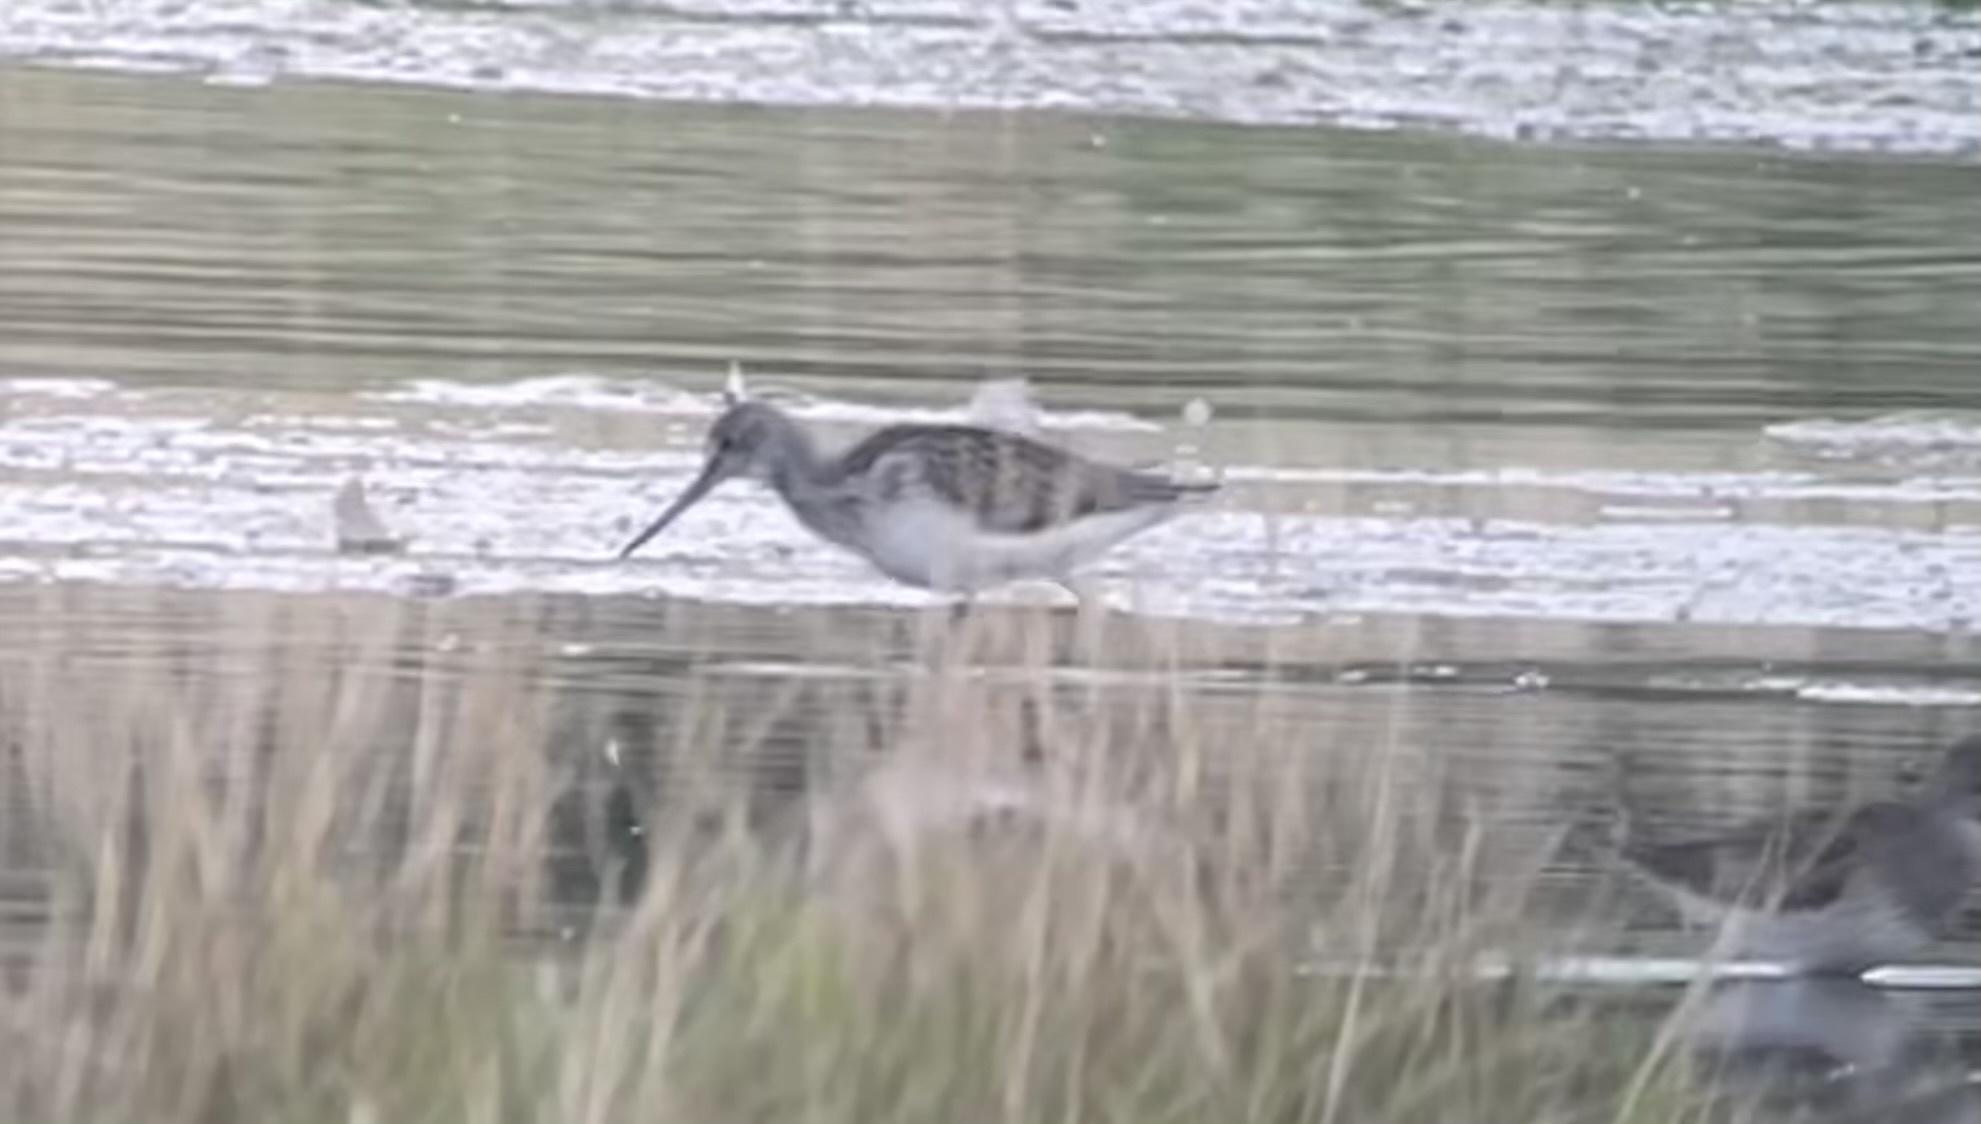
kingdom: Animalia
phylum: Chordata
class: Aves
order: Charadriiformes
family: Scolopacidae
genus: Tringa
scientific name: Tringa nebularia
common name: Common greenshank
